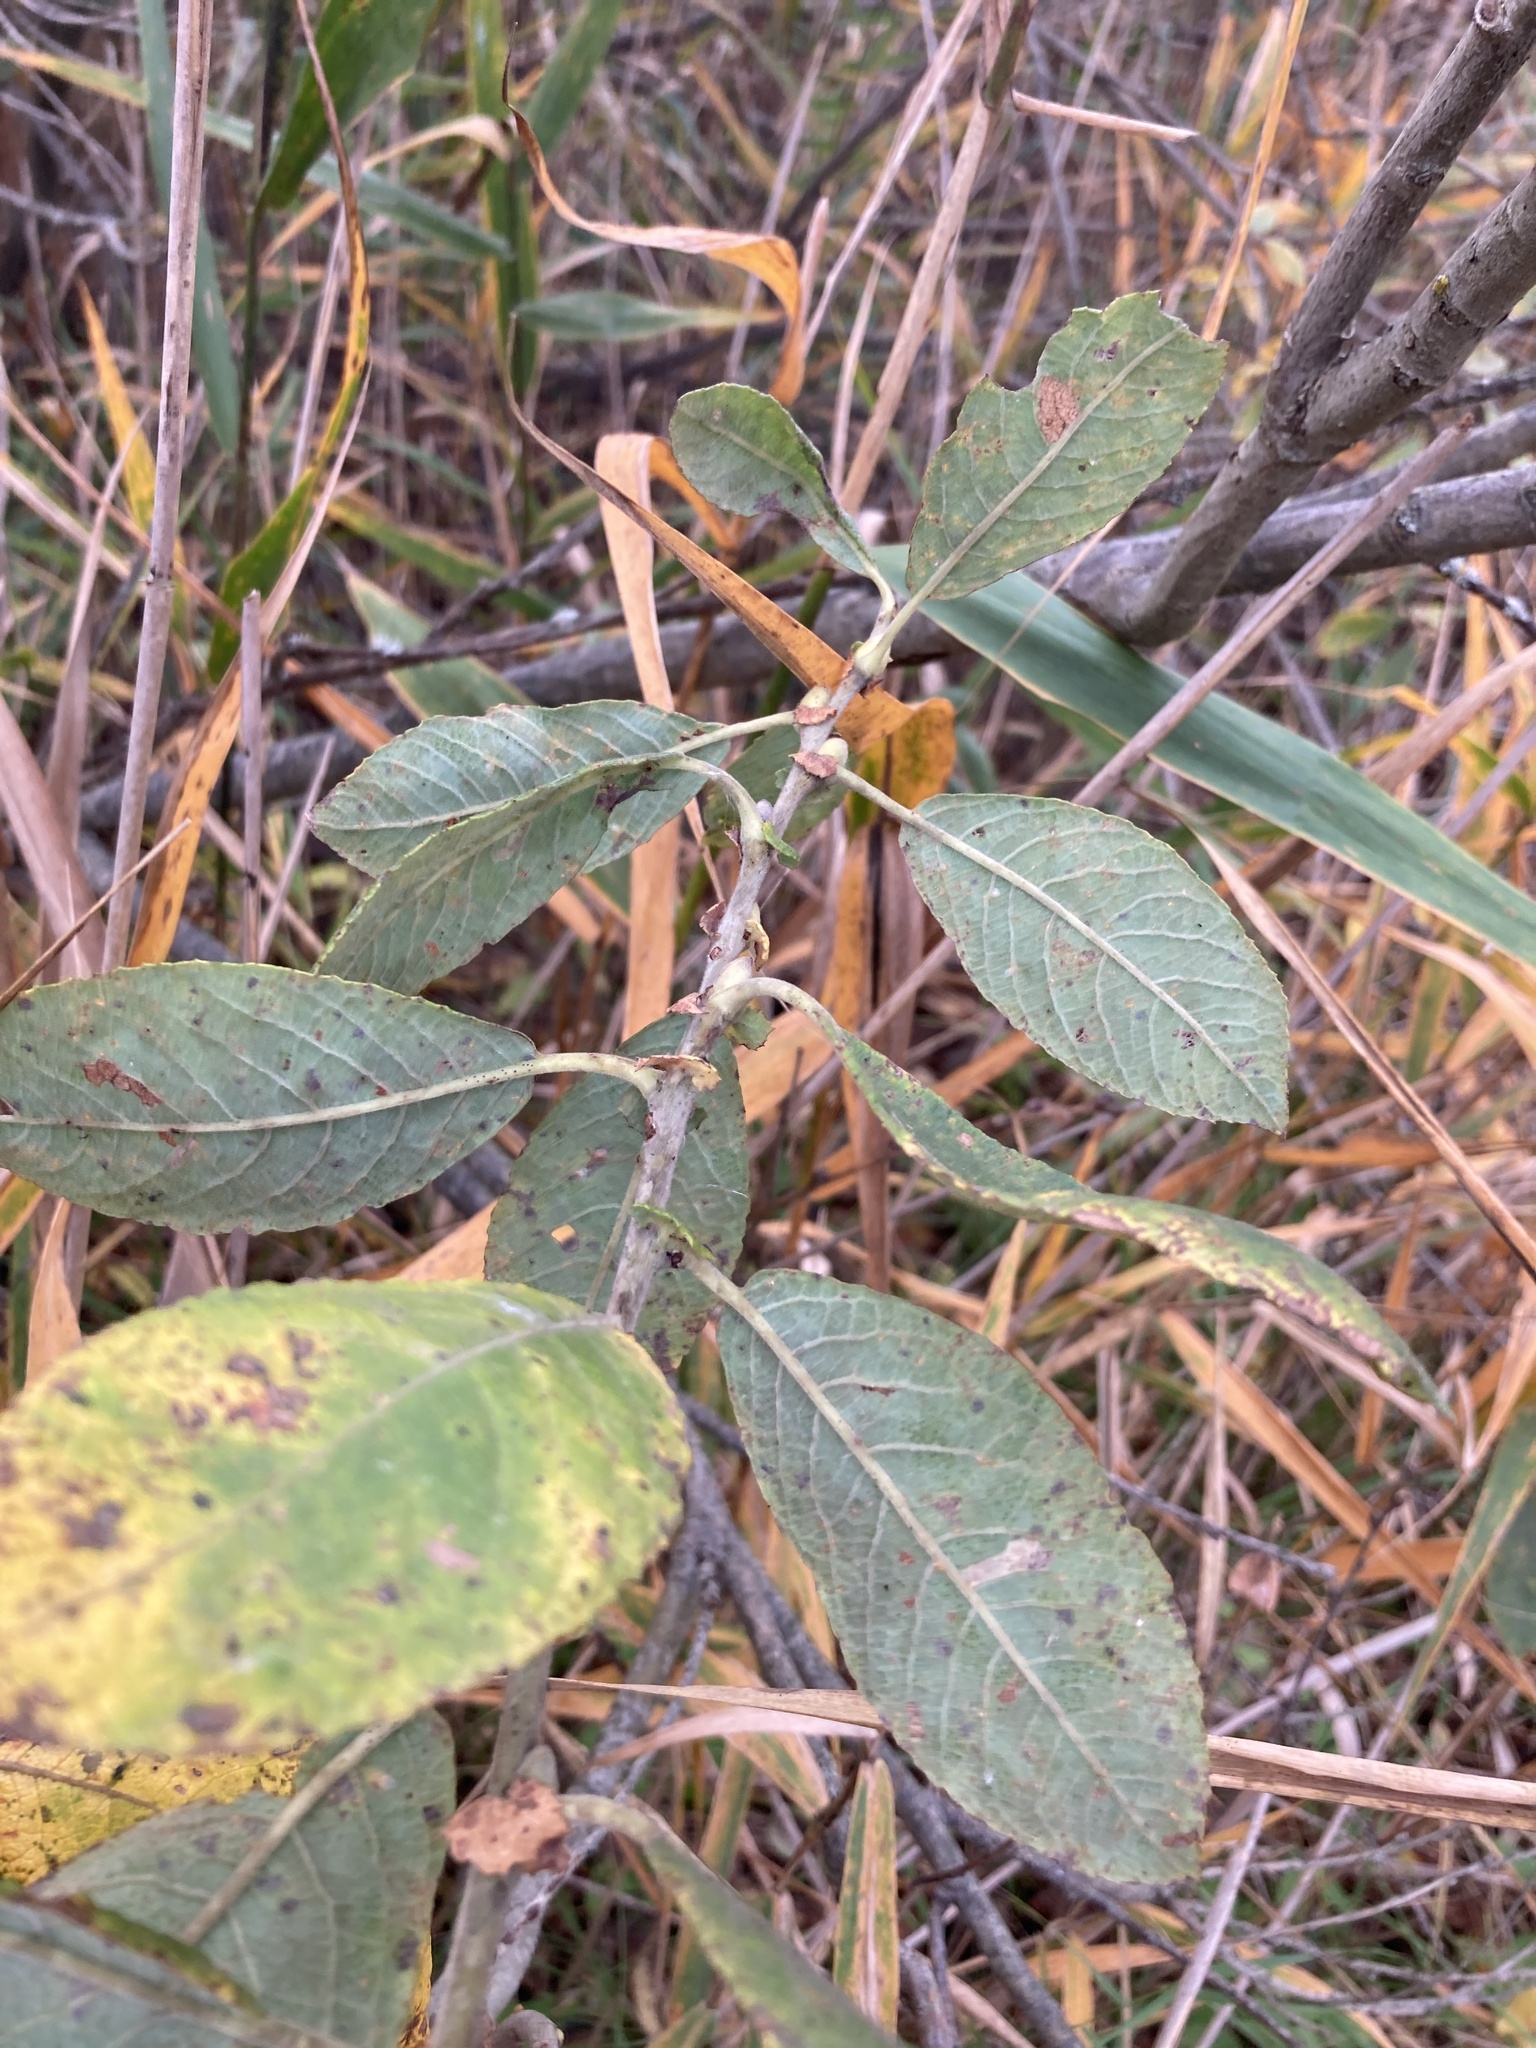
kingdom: Plantae
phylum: Tracheophyta
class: Magnoliopsida
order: Malpighiales
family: Salicaceae
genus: Salix
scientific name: Salix cinerea
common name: Common sallow
